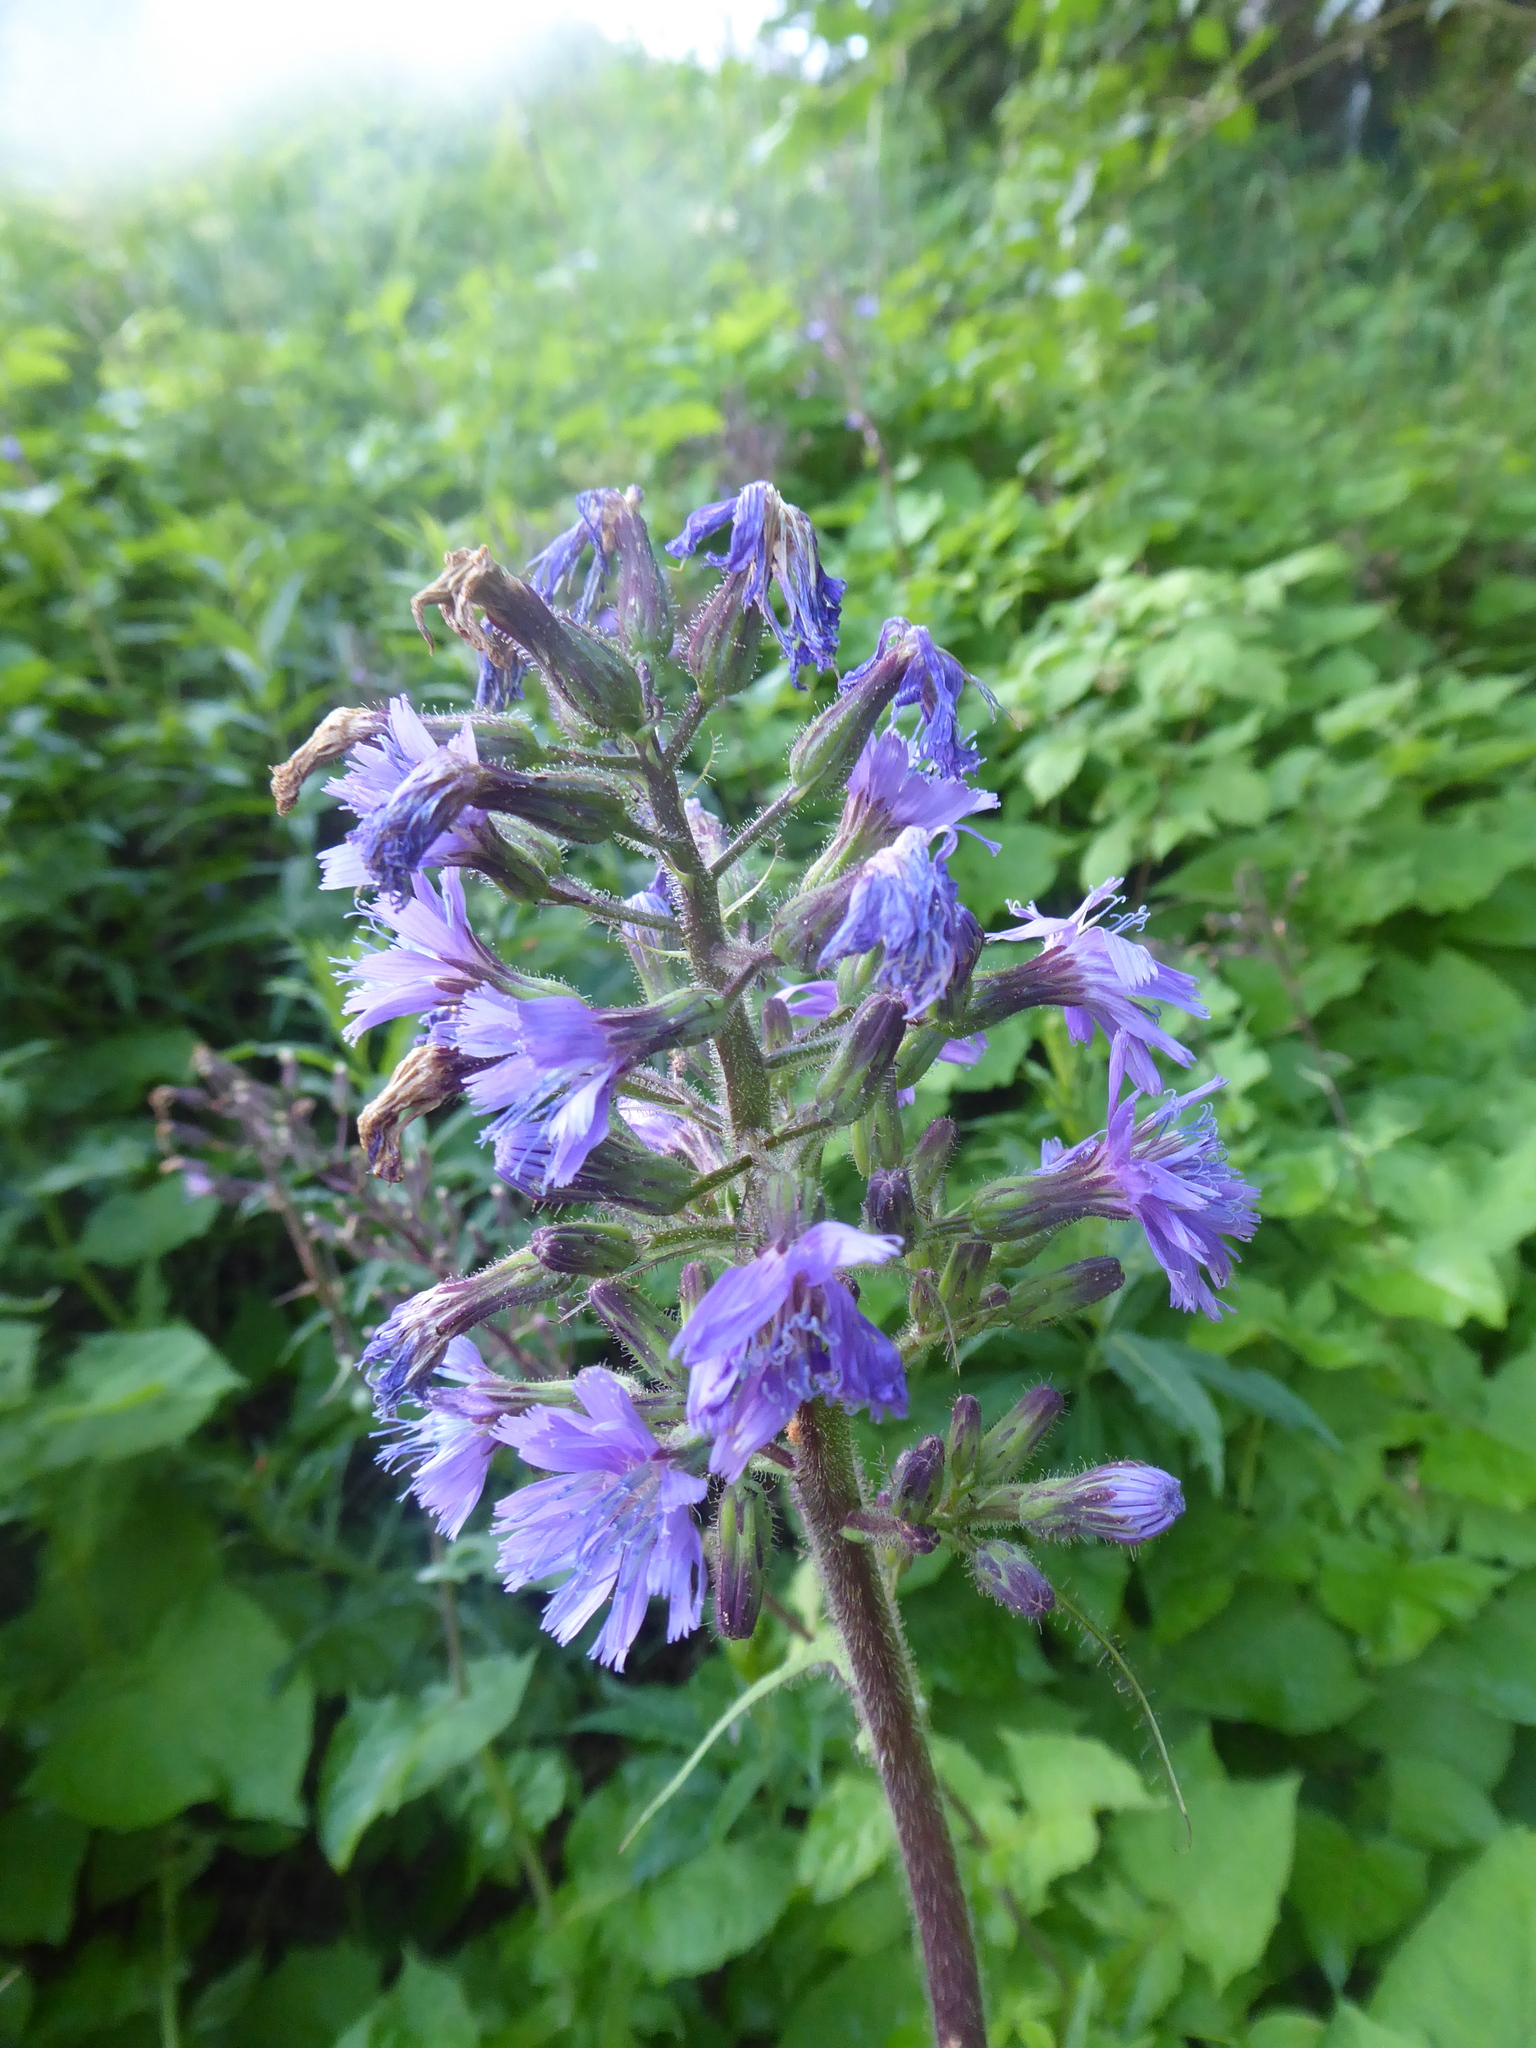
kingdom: Plantae
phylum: Tracheophyta
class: Magnoliopsida
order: Asterales
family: Asteraceae
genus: Cicerbita
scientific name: Cicerbita alpina
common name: Alpine blue-sow-thistle
